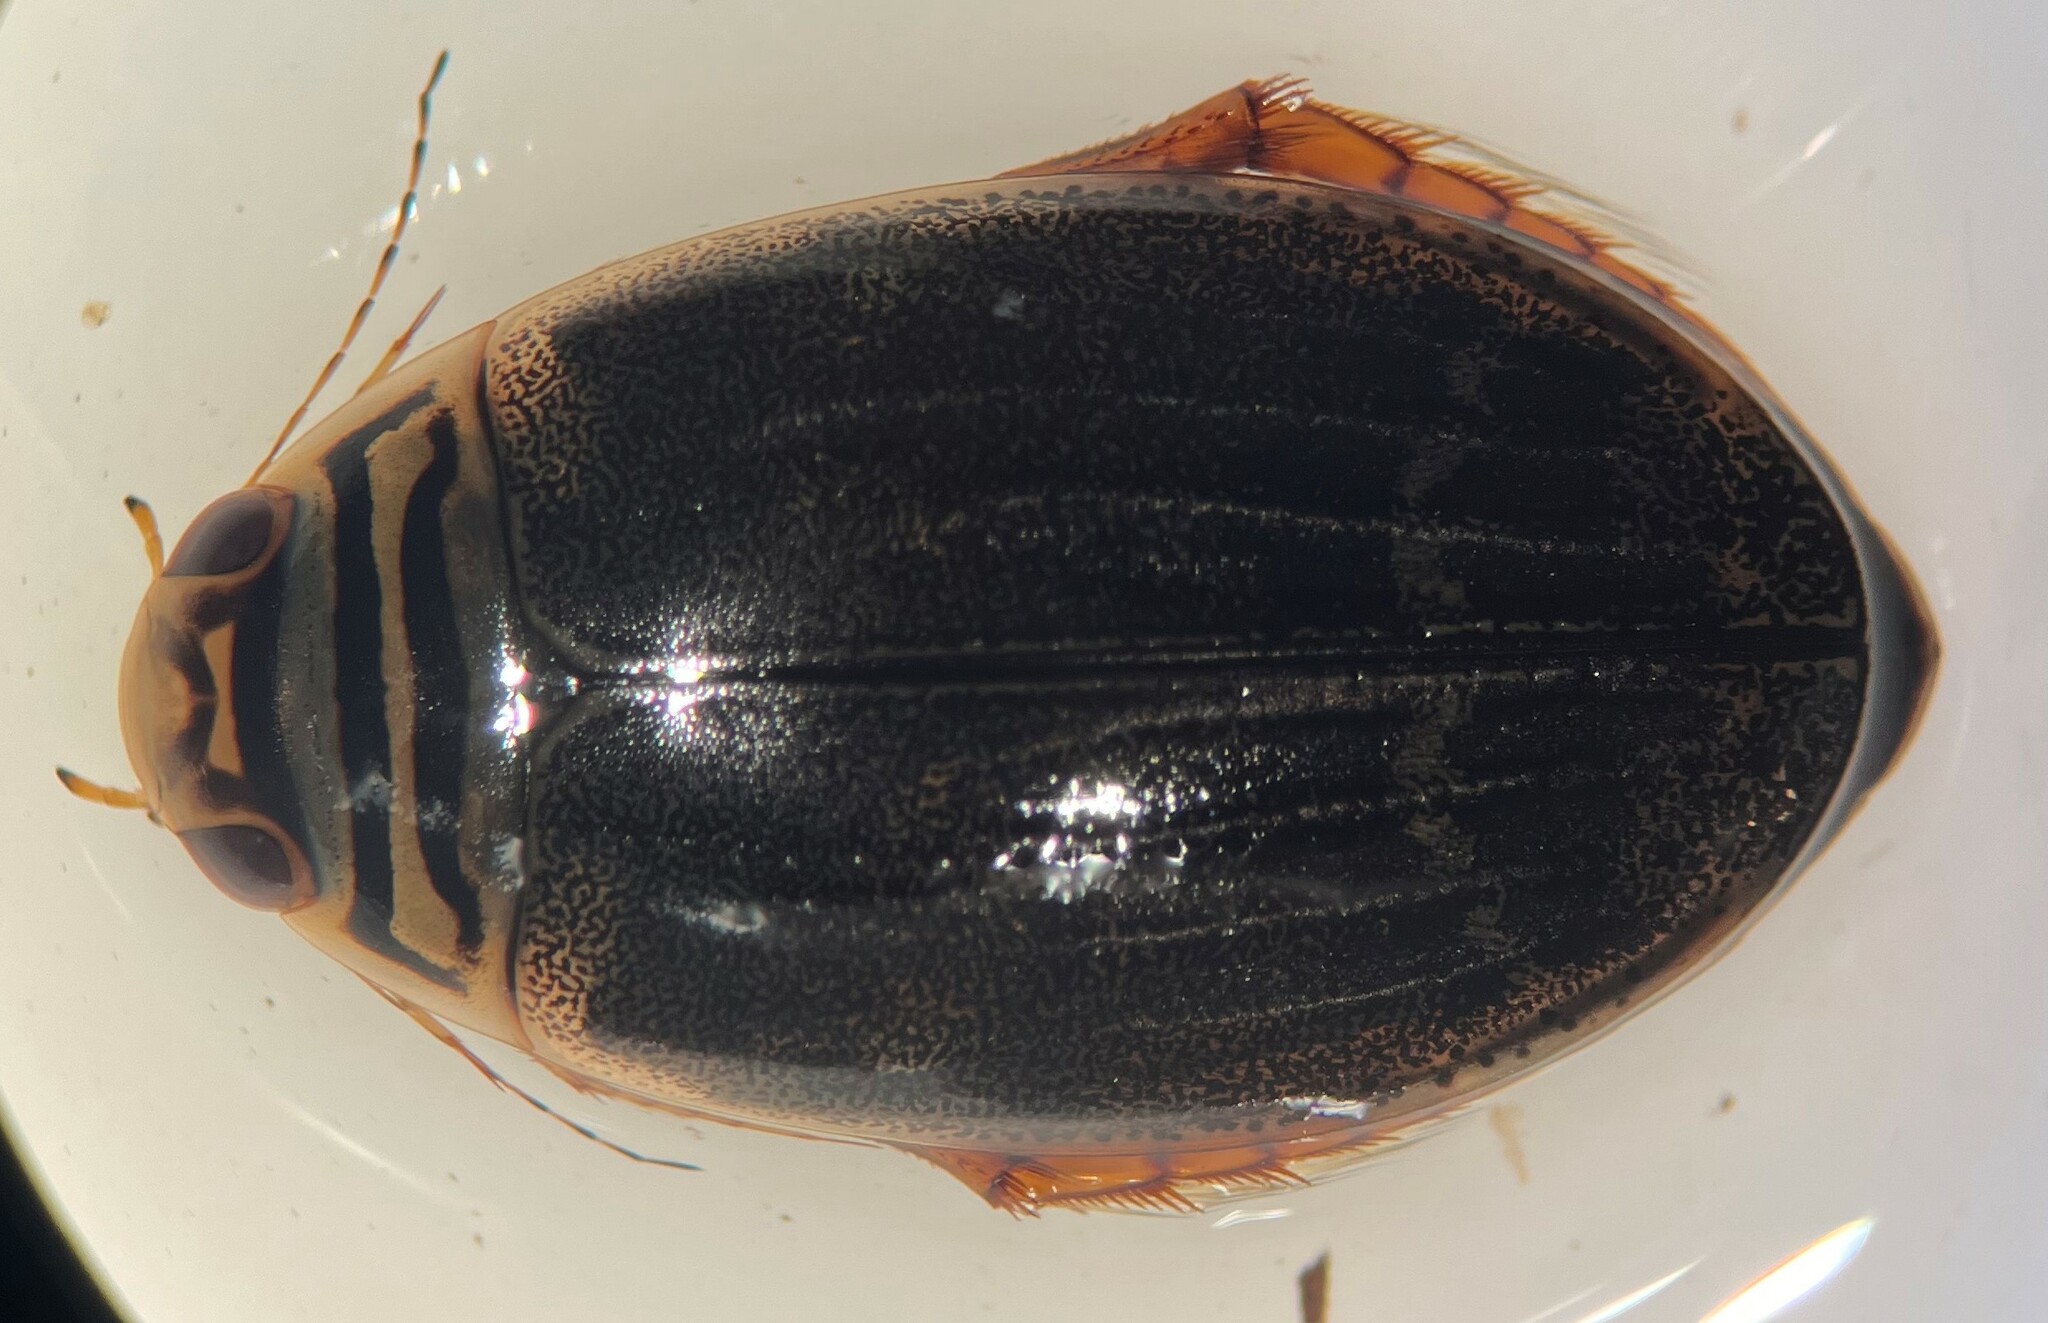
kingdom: Animalia
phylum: Arthropoda
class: Insecta
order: Coleoptera
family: Dytiscidae
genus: Acilius
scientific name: Acilius semisulcatus
